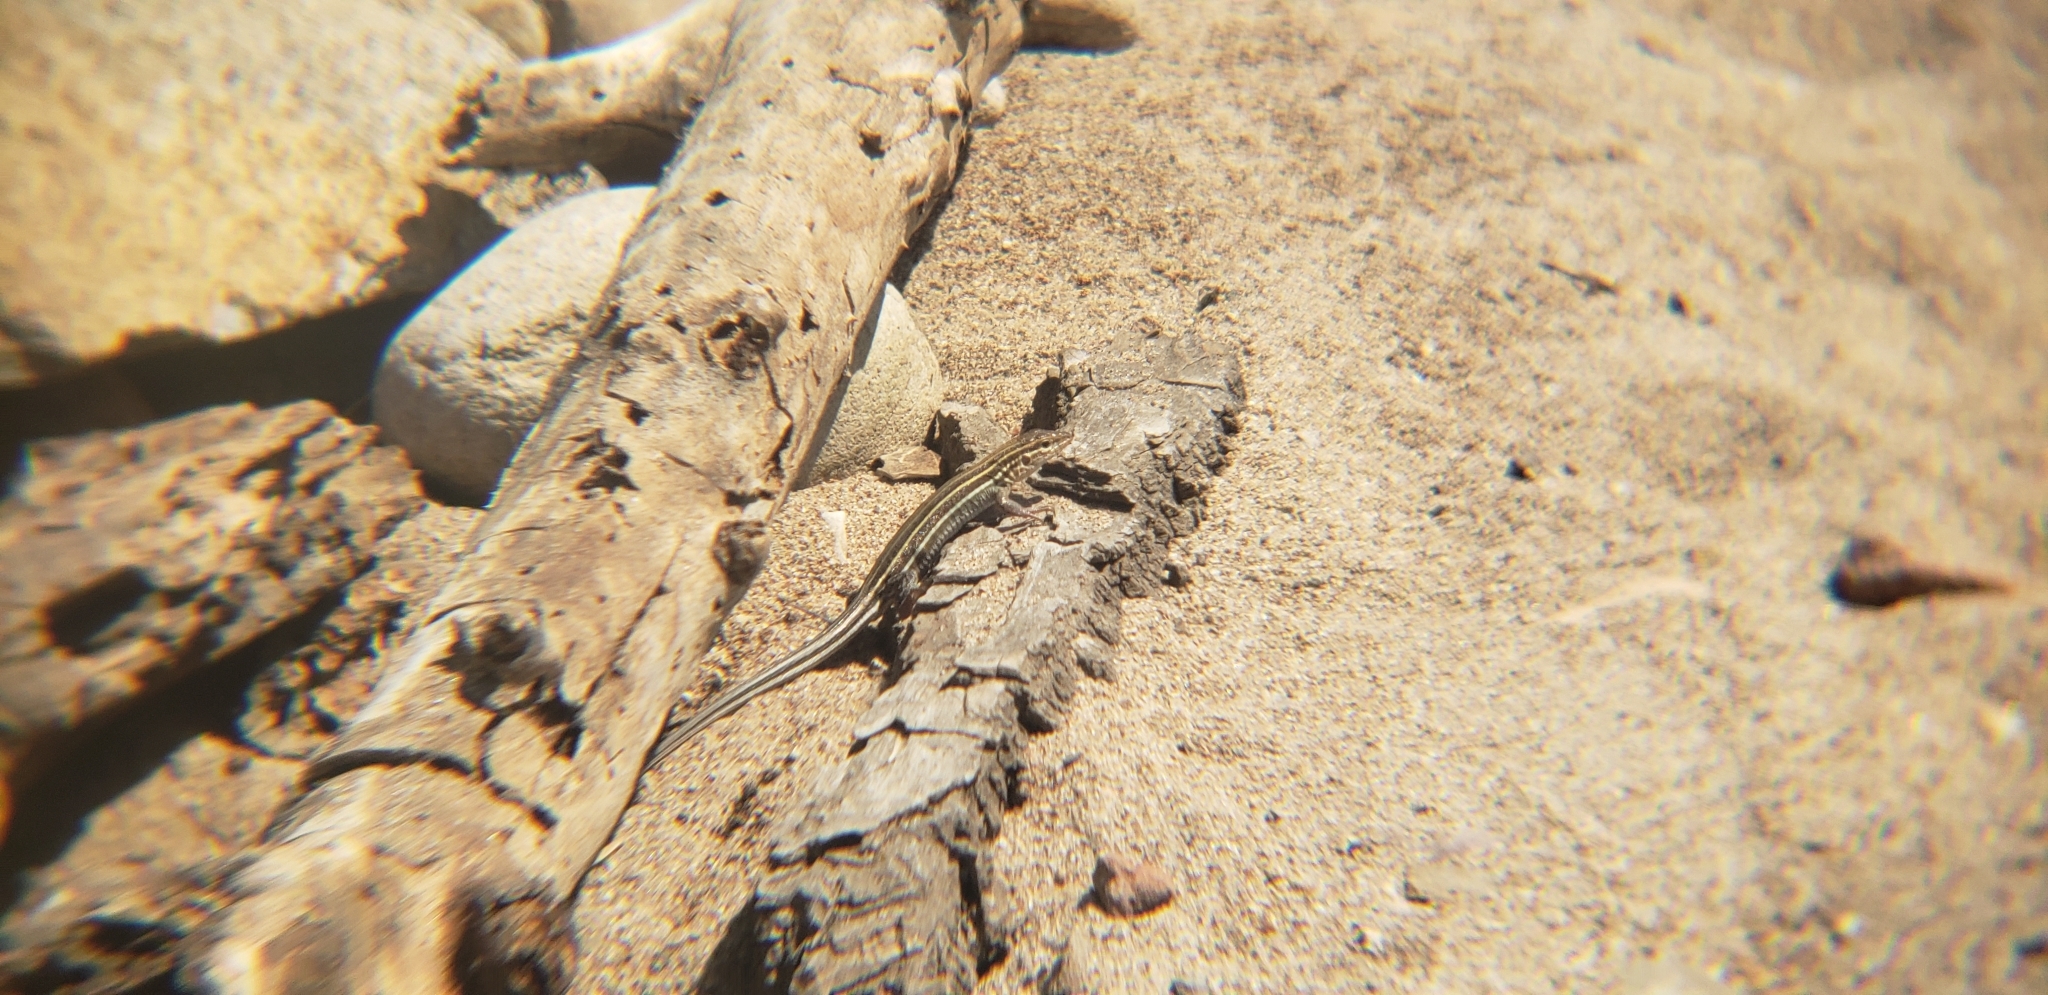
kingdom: Animalia
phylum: Chordata
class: Squamata
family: Teiidae
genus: Aspidoscelis
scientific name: Aspidoscelis hyperythrus
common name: Orange-throated race-runner
